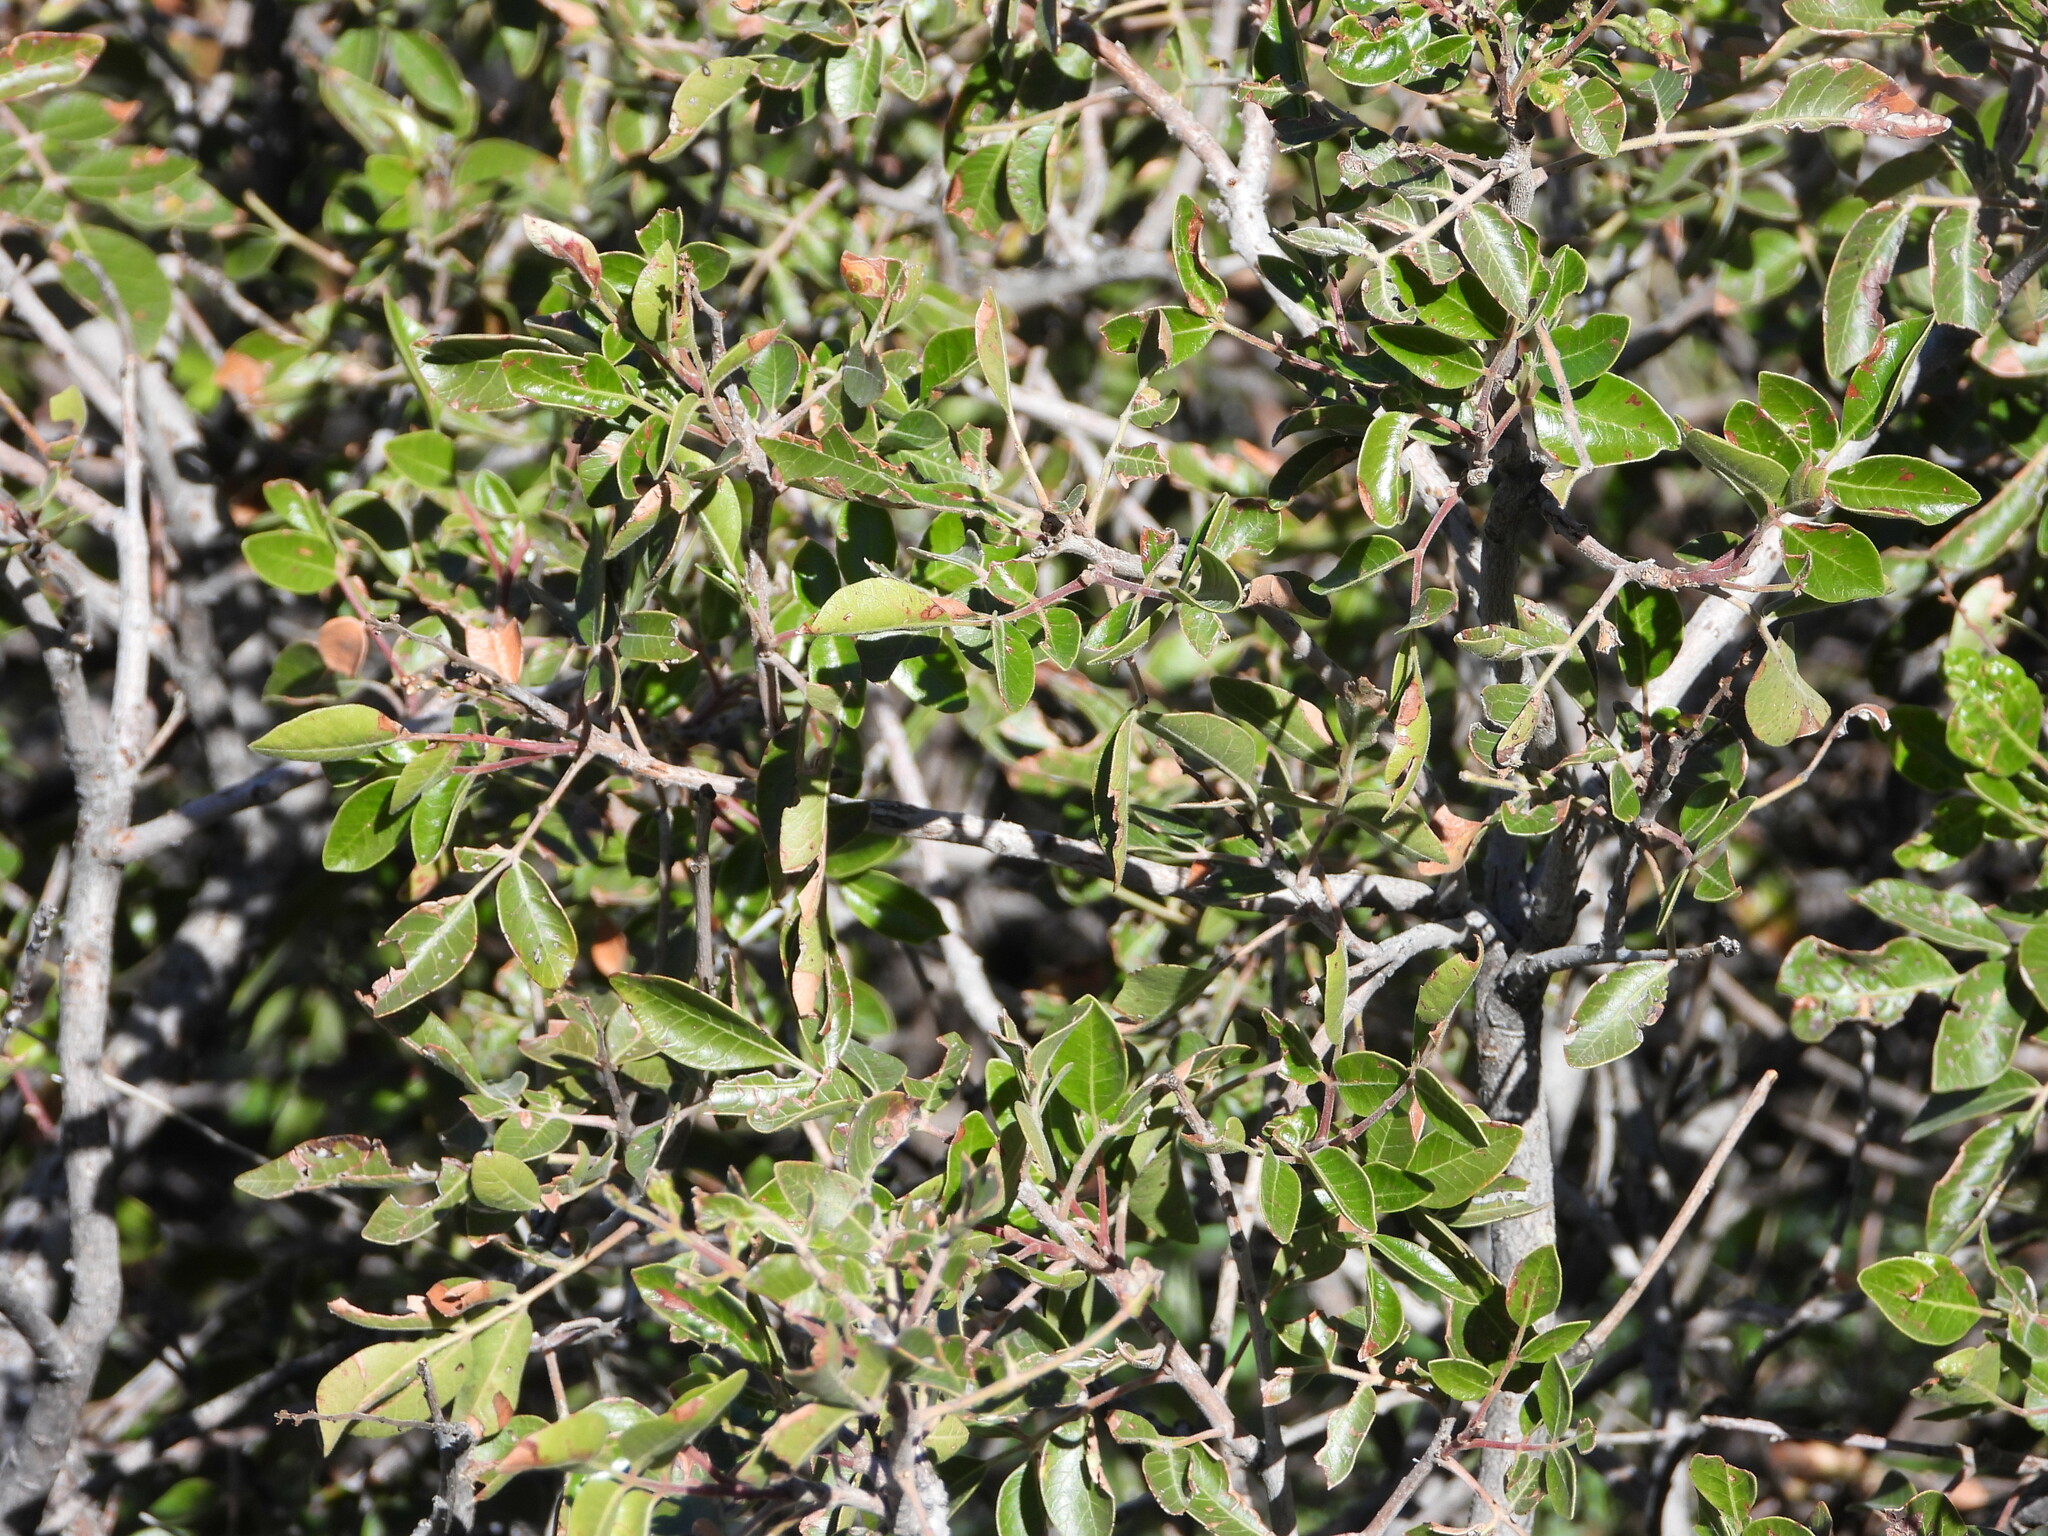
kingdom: Plantae
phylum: Tracheophyta
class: Magnoliopsida
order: Sapindales
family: Anacardiaceae
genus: Rhus
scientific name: Rhus virens
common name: Evergreen sumac
